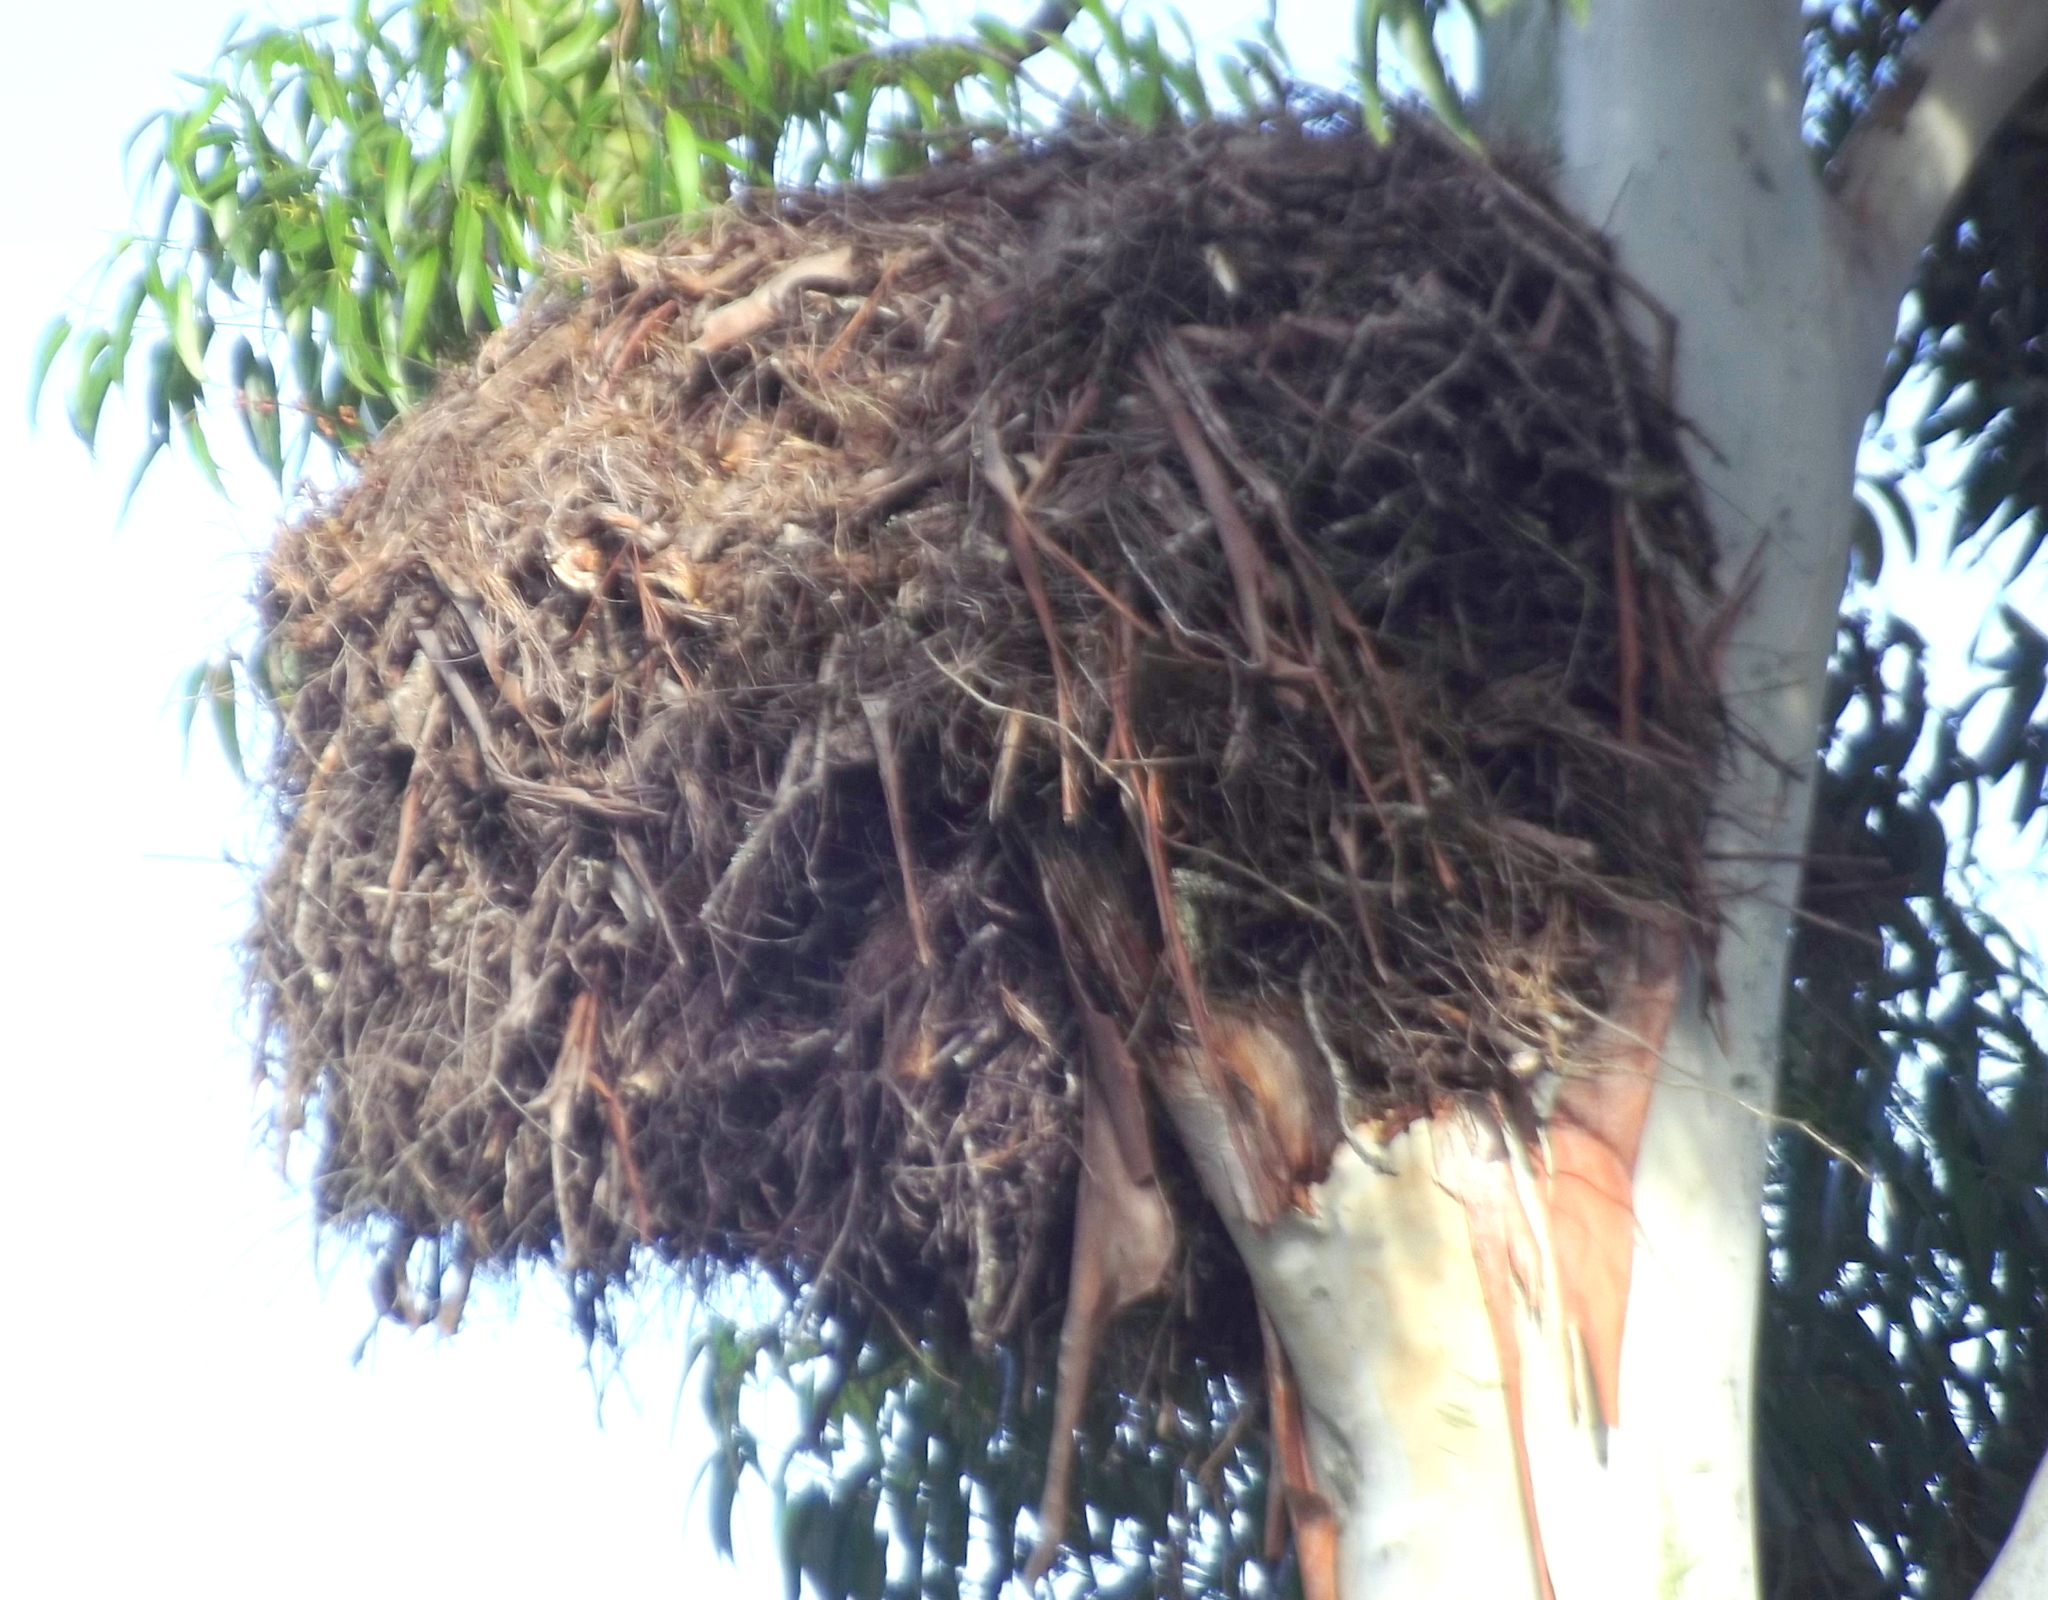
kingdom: Animalia
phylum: Chordata
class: Aves
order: Pelecaniformes
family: Scopidae
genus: Scopus
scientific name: Scopus umbretta
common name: Hamerkop
